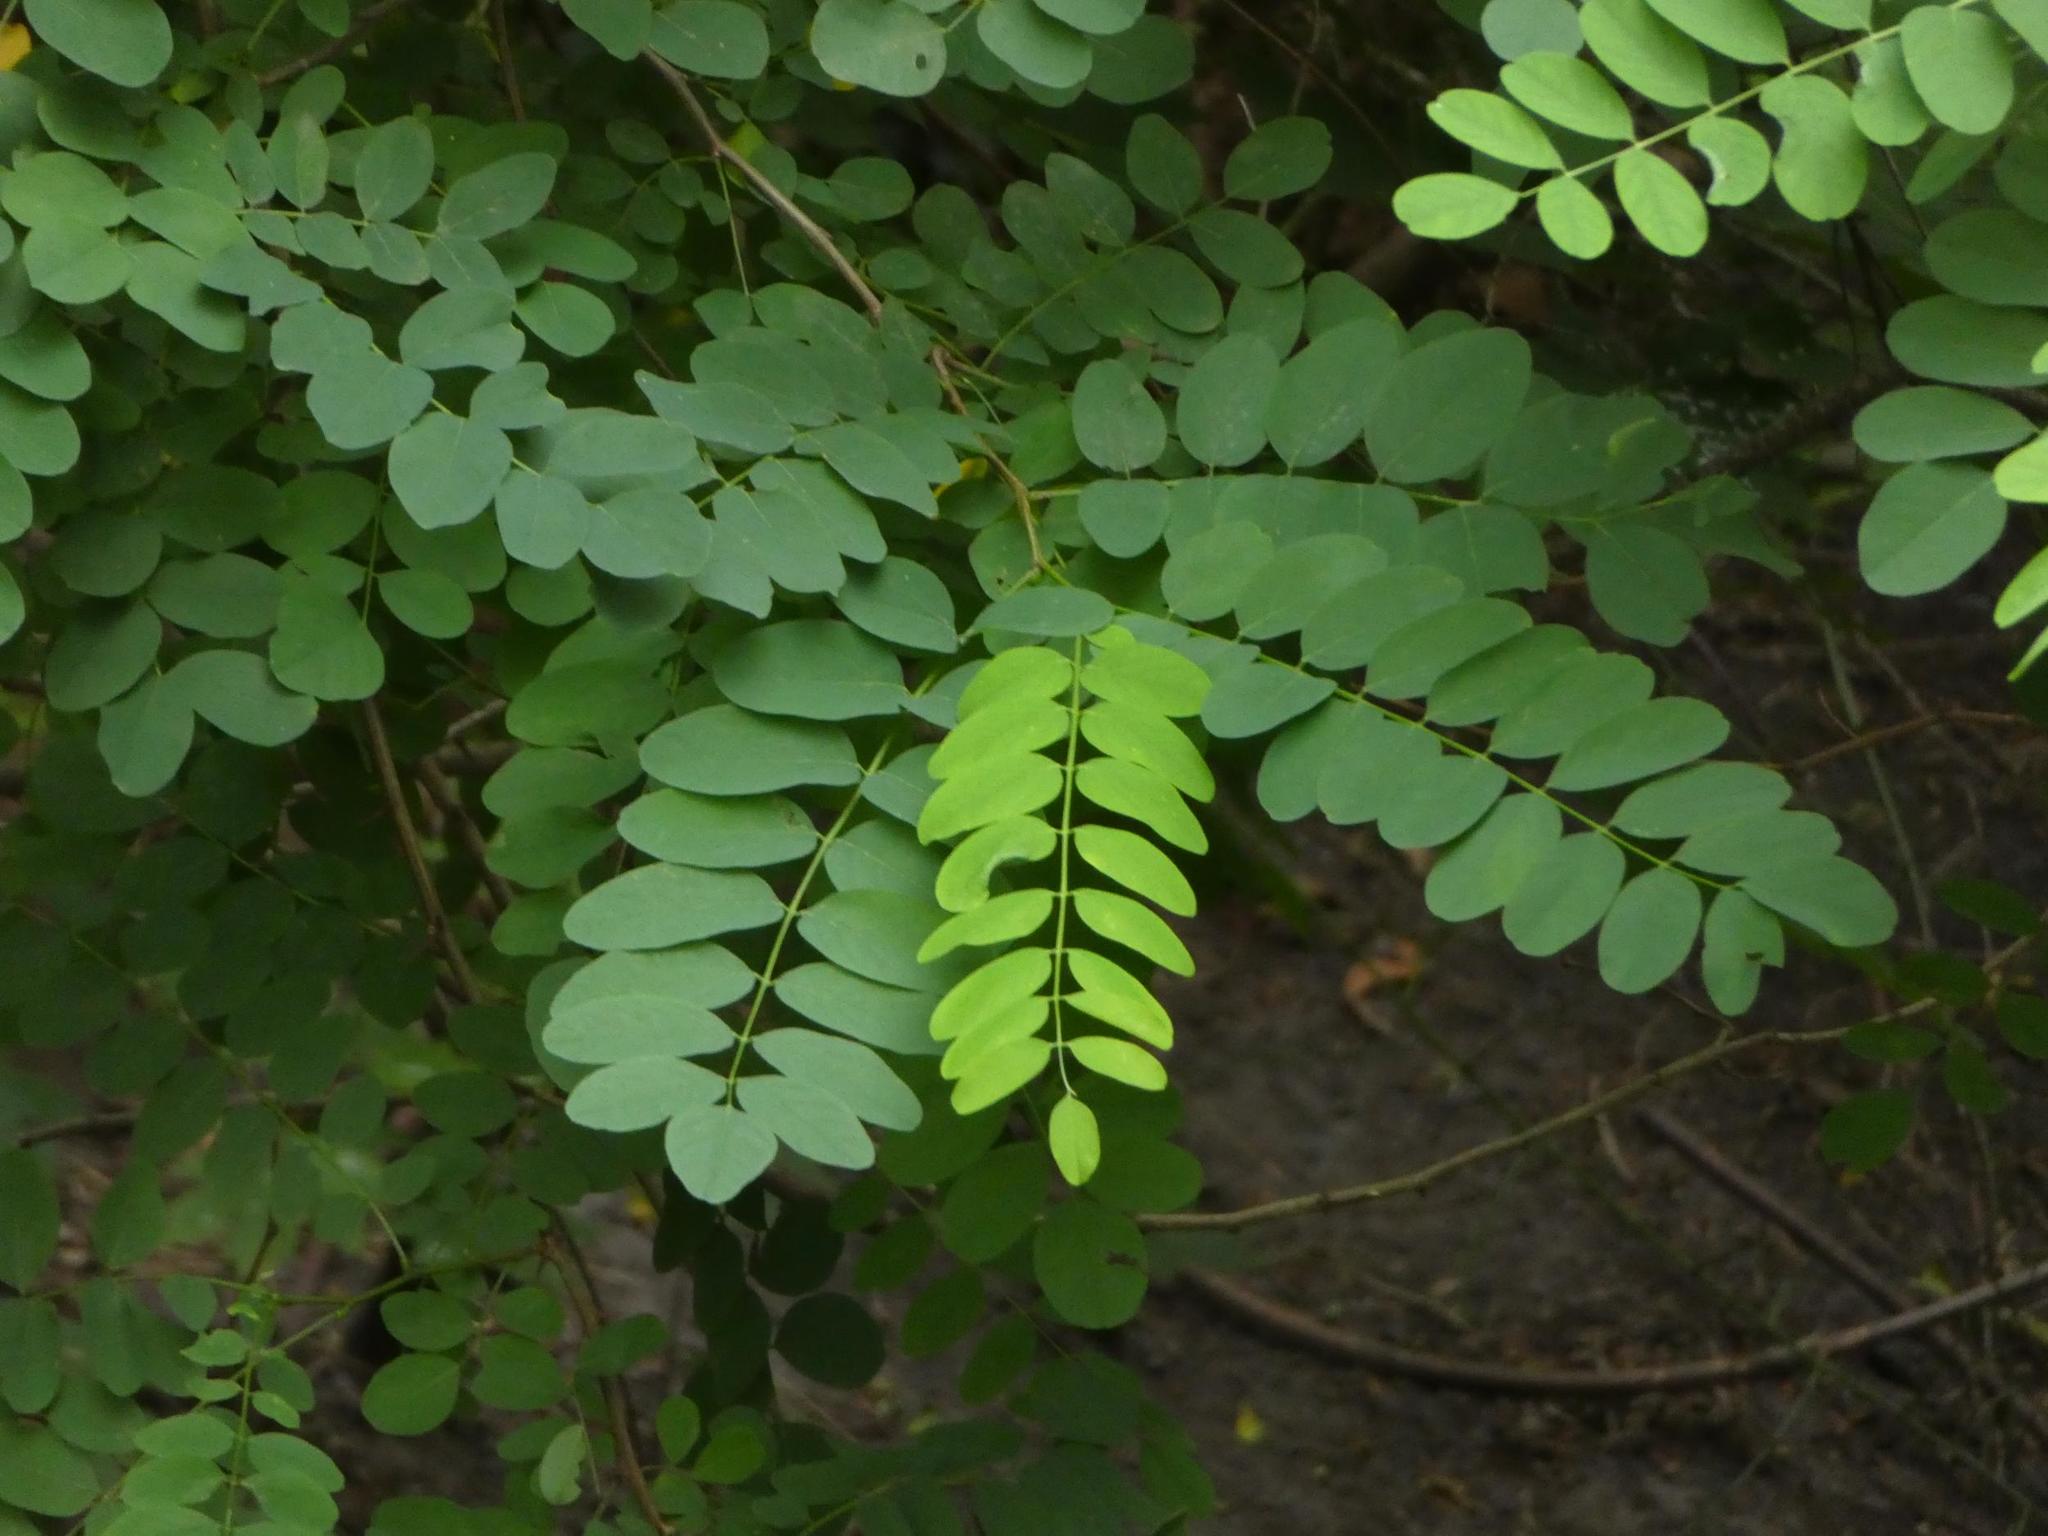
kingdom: Plantae
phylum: Tracheophyta
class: Magnoliopsida
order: Fabales
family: Fabaceae
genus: Robinia
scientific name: Robinia pseudoacacia
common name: Black locust
